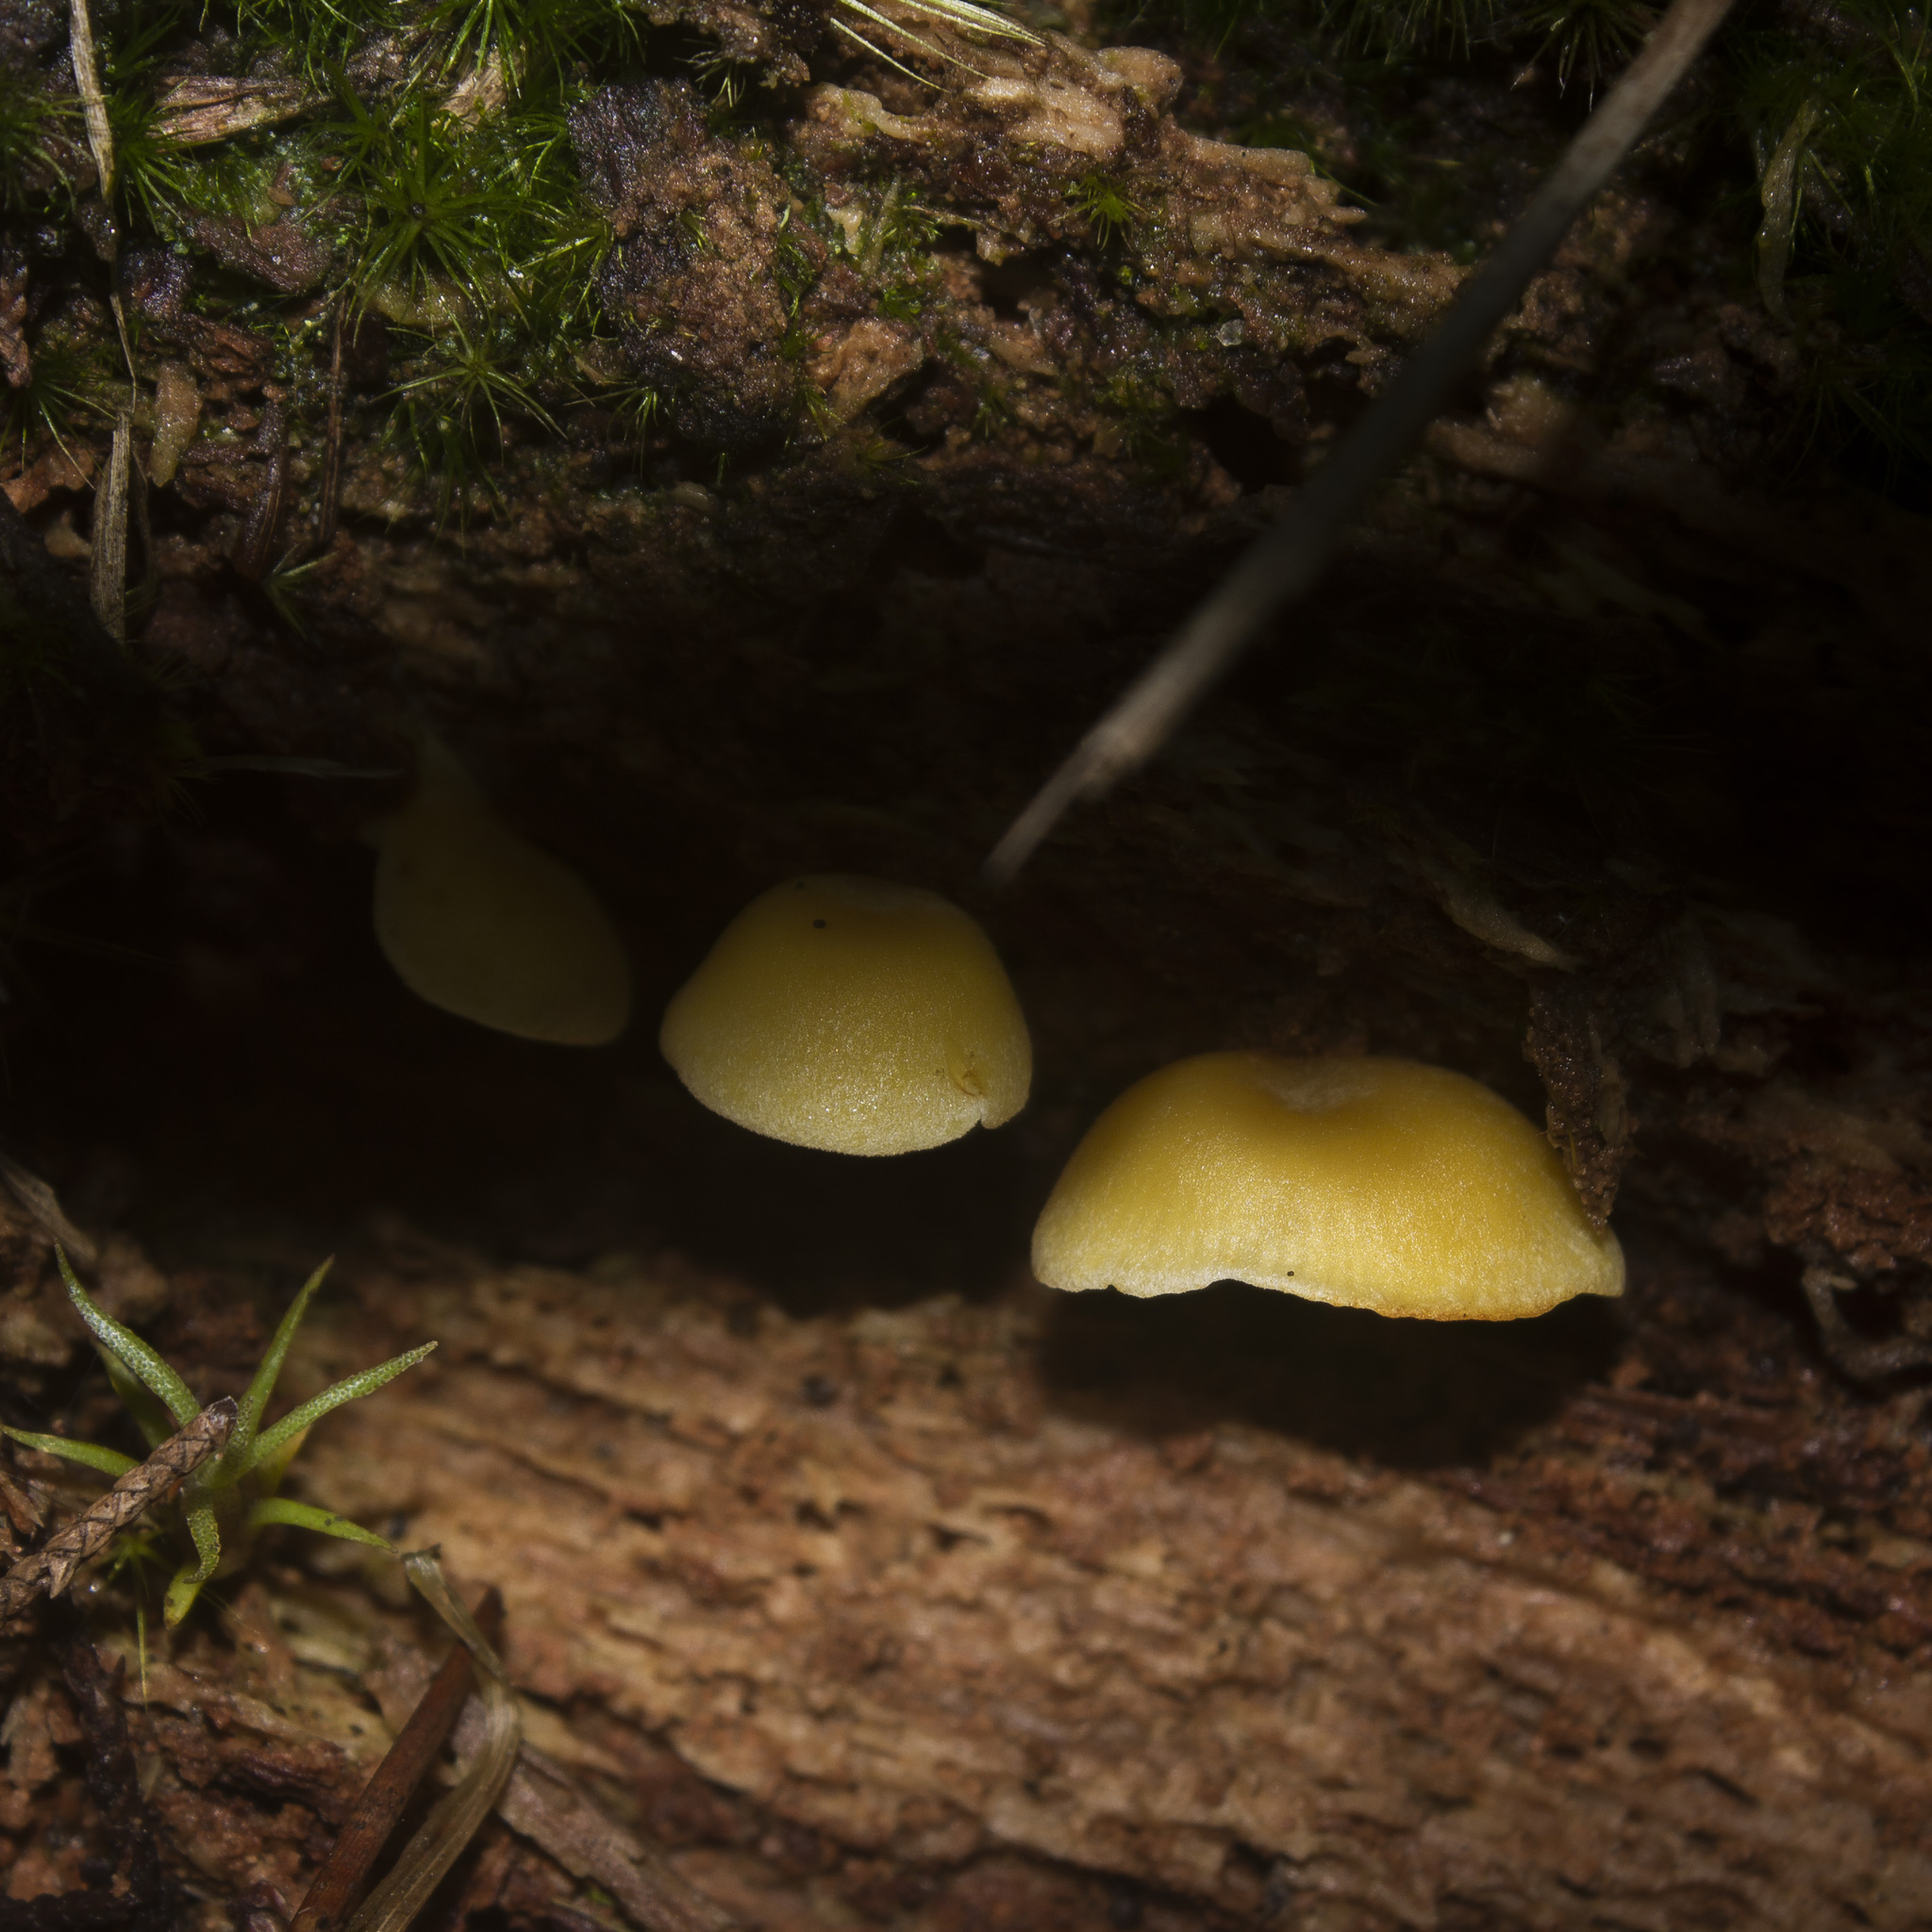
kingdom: Fungi
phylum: Basidiomycota
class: Agaricomycetes
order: Agaricales
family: Tricholomataceae
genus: Tricholomopsis
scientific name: Tricholomopsis aurea
